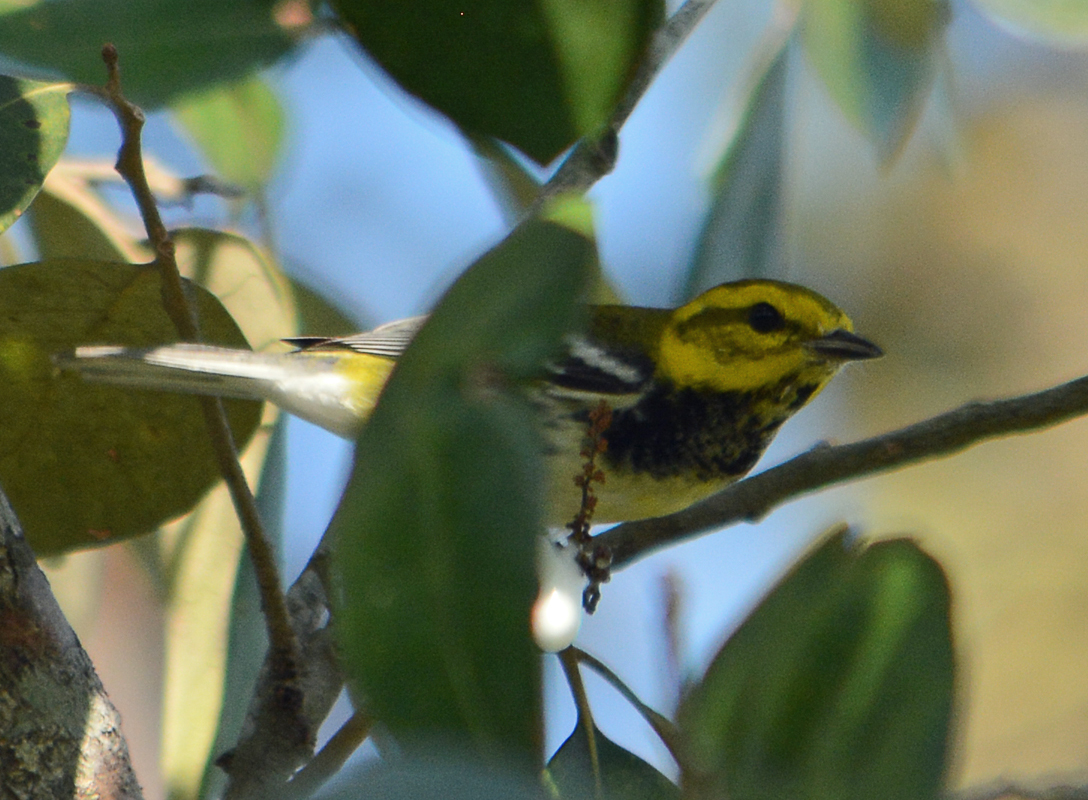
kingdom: Animalia
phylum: Chordata
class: Aves
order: Passeriformes
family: Parulidae
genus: Setophaga
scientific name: Setophaga virens
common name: Black-throated green warbler
